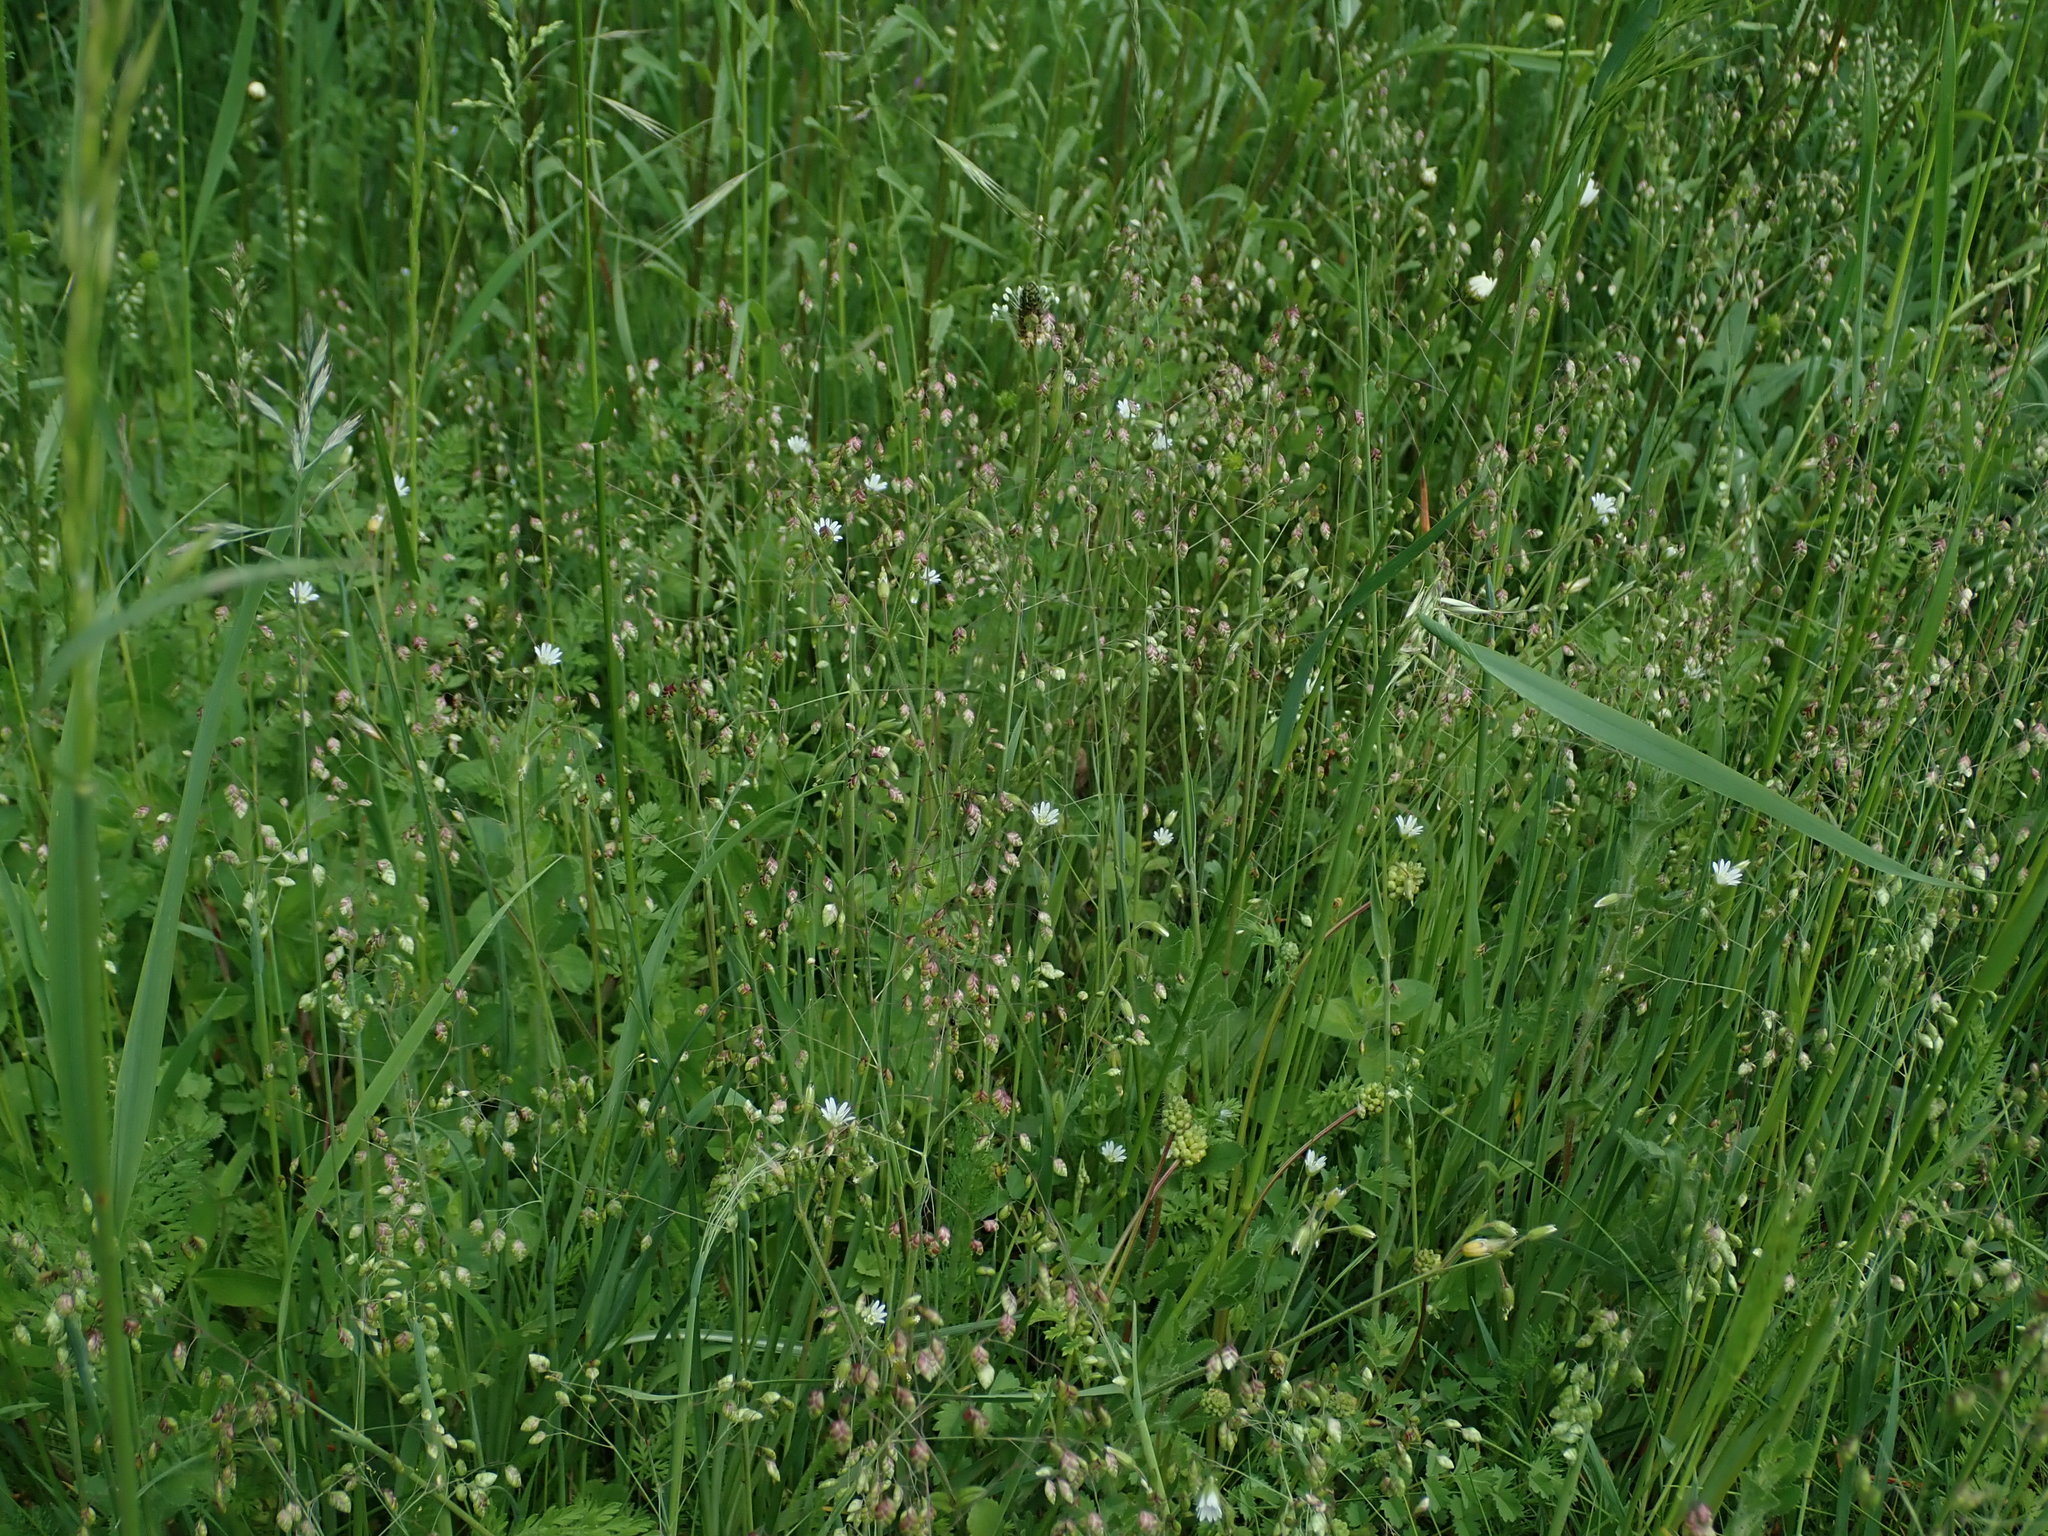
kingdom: Plantae
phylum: Tracheophyta
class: Liliopsida
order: Poales
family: Poaceae
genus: Briza
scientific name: Briza media
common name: Quaking grass
